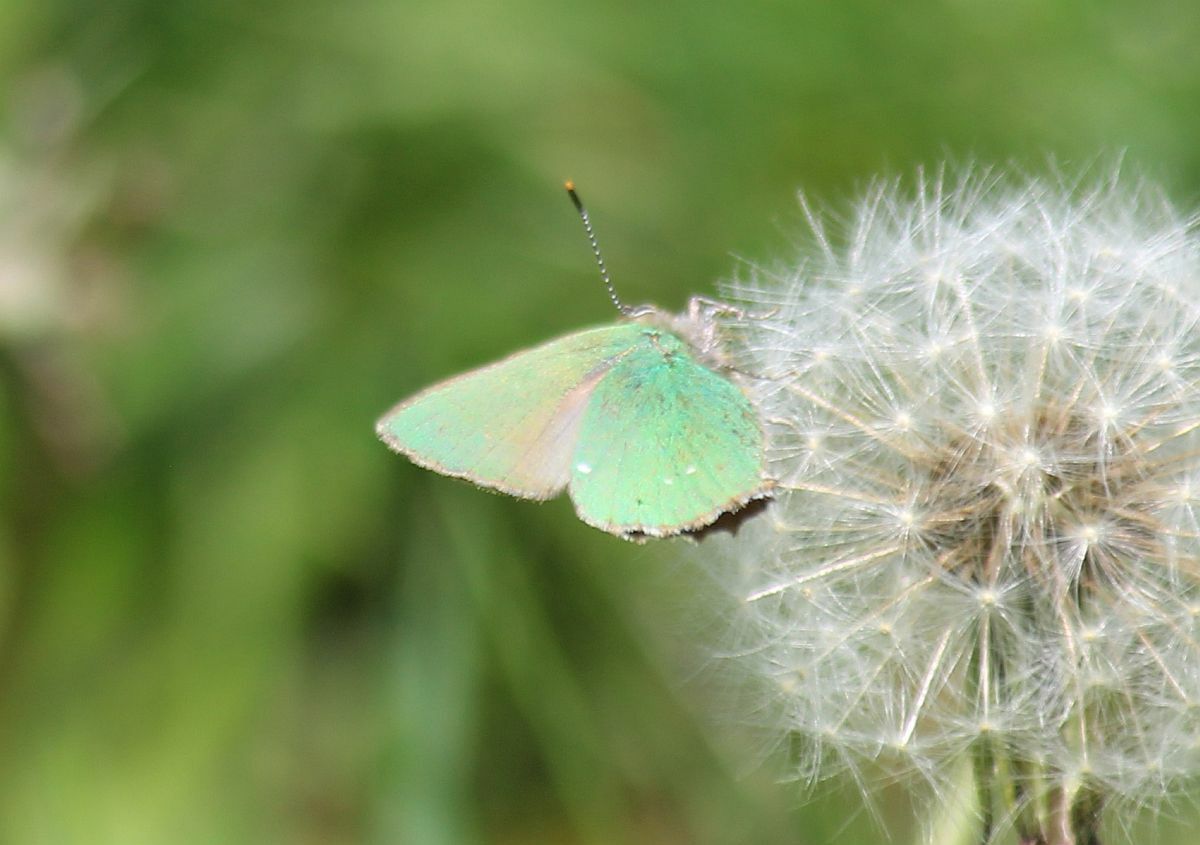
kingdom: Animalia
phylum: Arthropoda
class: Insecta
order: Lepidoptera
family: Lycaenidae
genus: Callophrys
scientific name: Callophrys rubi
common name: Green hairstreak
